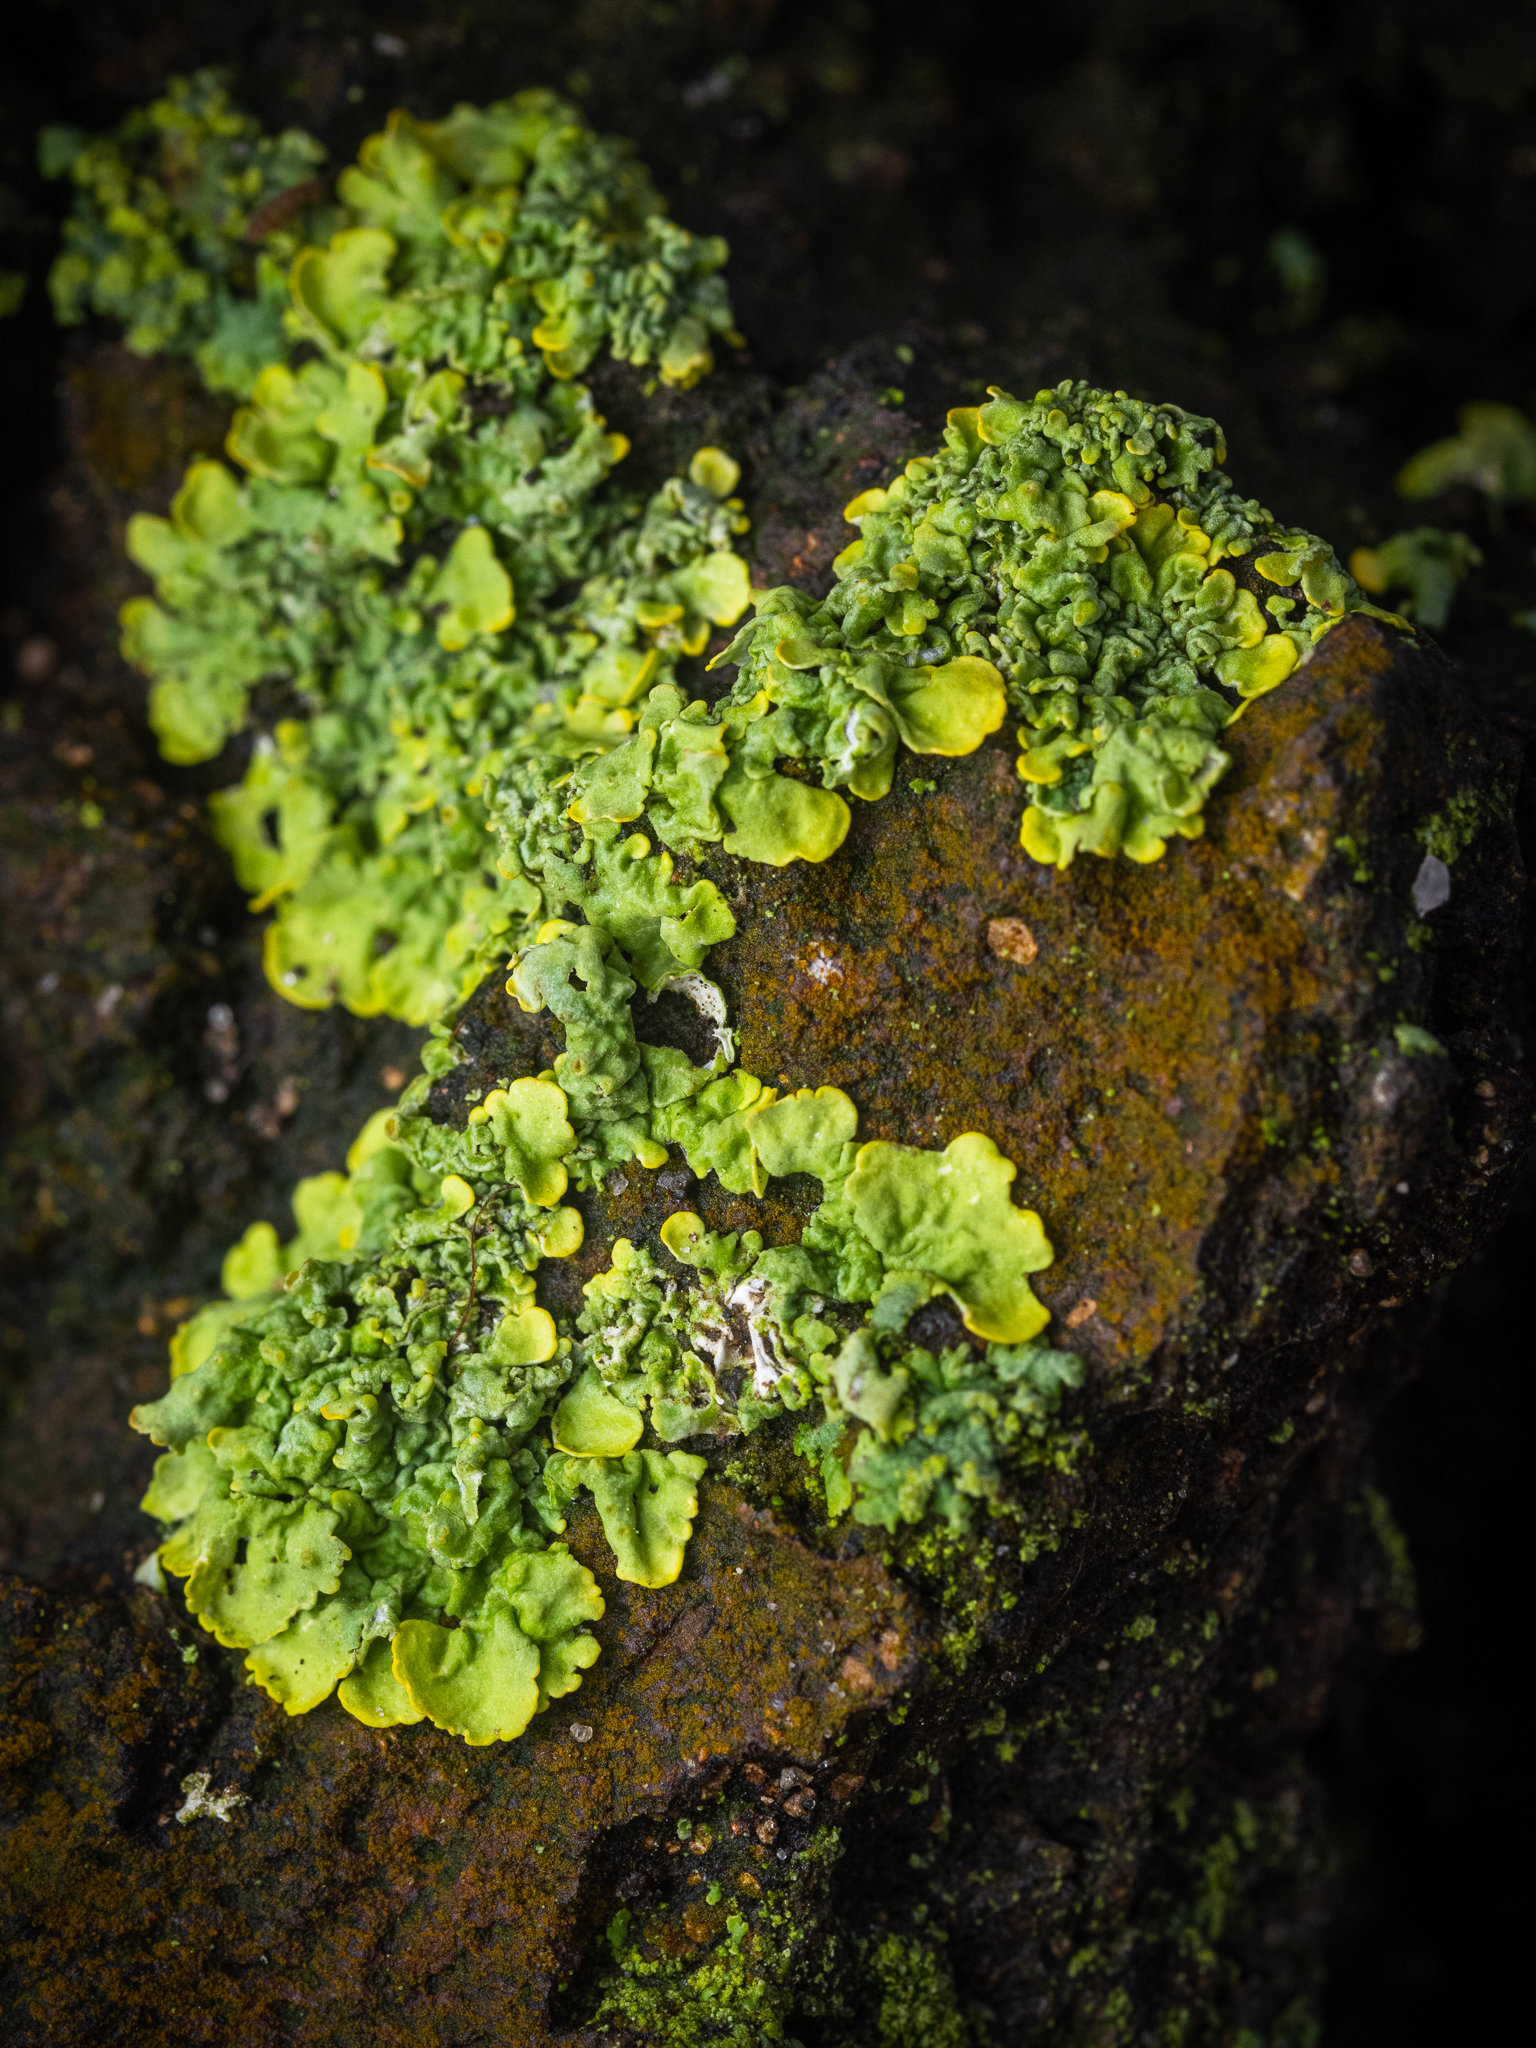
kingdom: Fungi
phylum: Ascomycota
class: Lecanoromycetes
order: Teloschistales
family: Teloschistaceae
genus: Xanthoria
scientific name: Xanthoria parietina
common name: Common orange lichen
